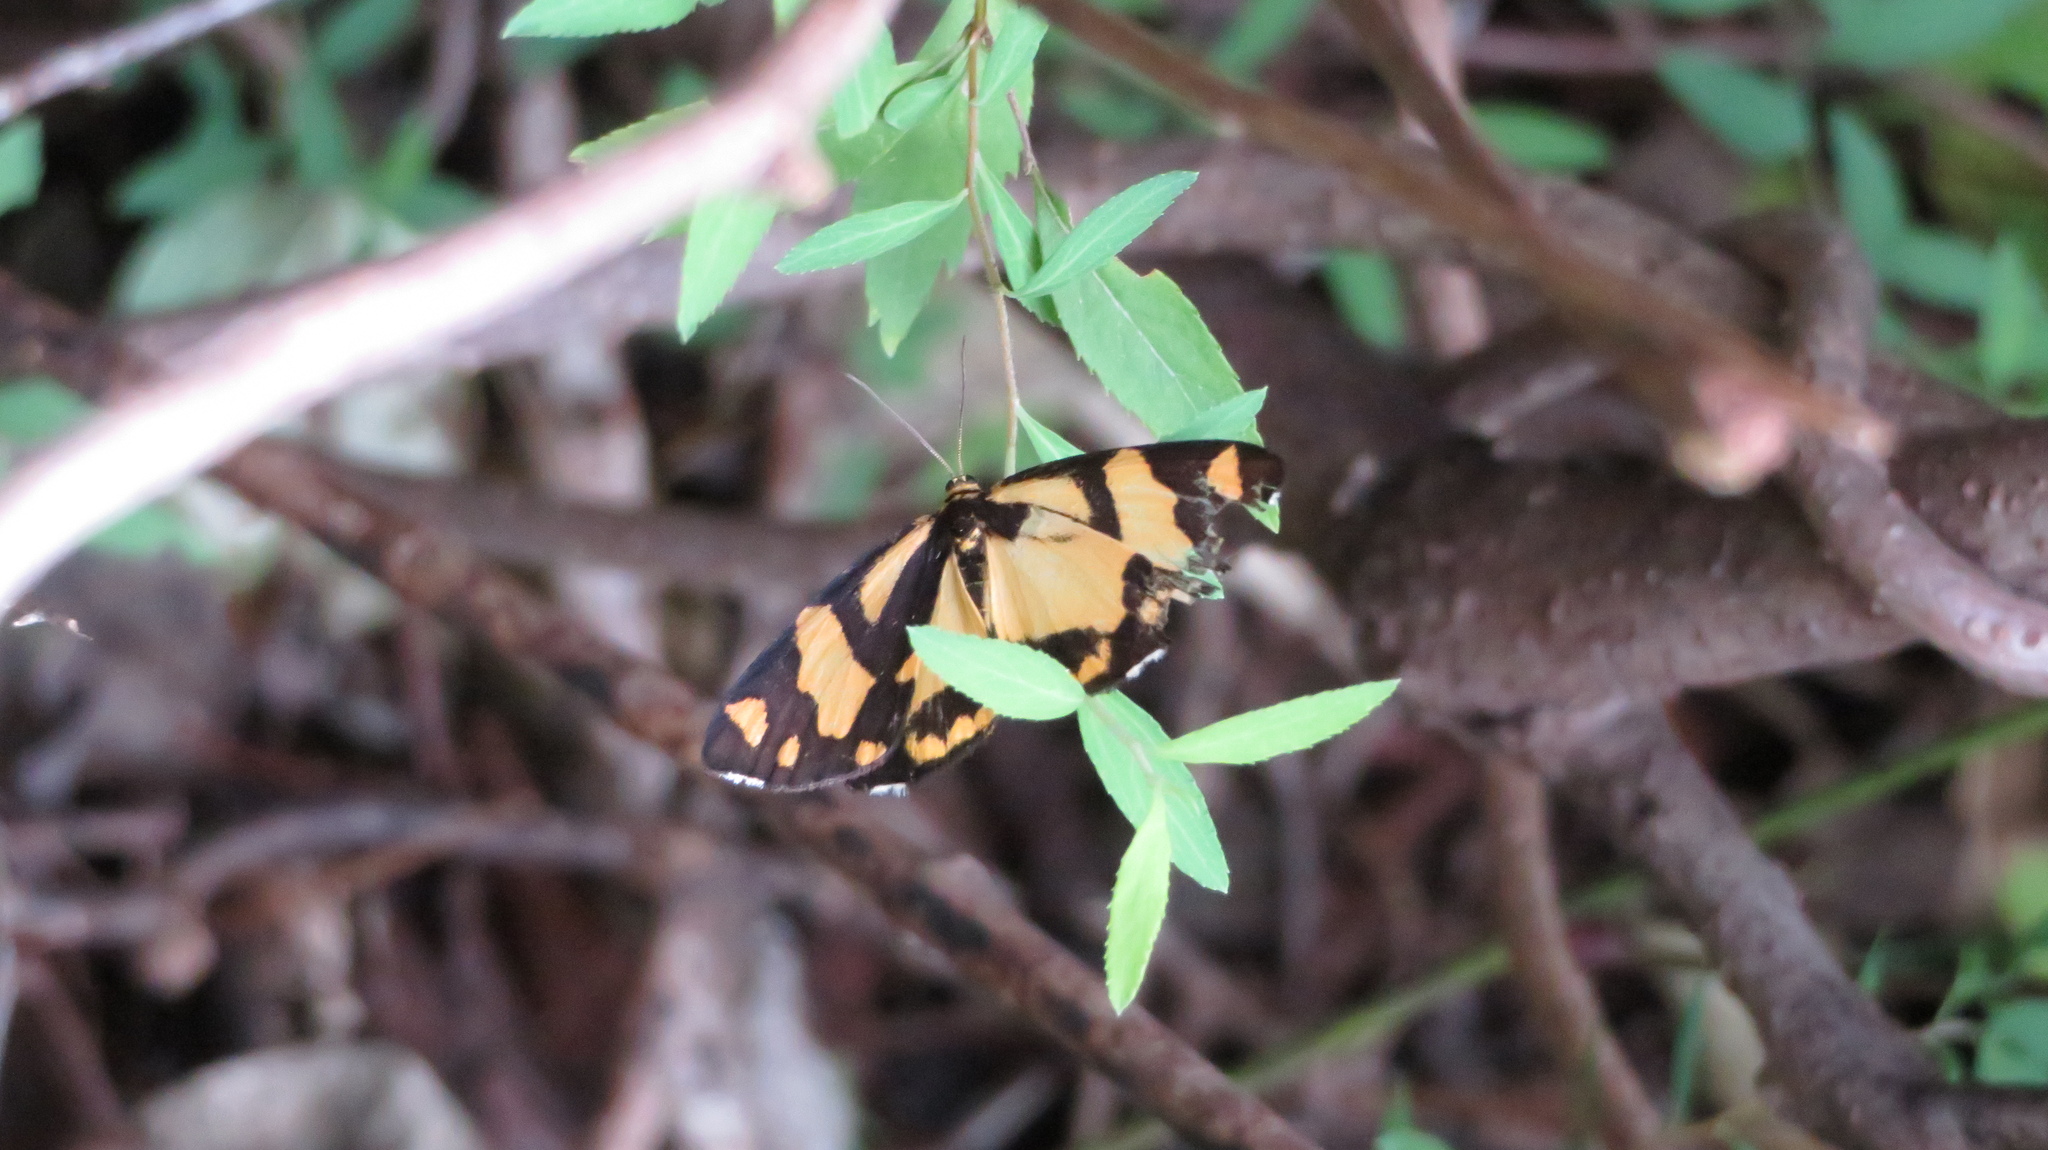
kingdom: Animalia
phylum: Arthropoda
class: Insecta
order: Lepidoptera
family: Epicopeiidae
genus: Psychostrophia
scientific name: Psychostrophia melanargia
